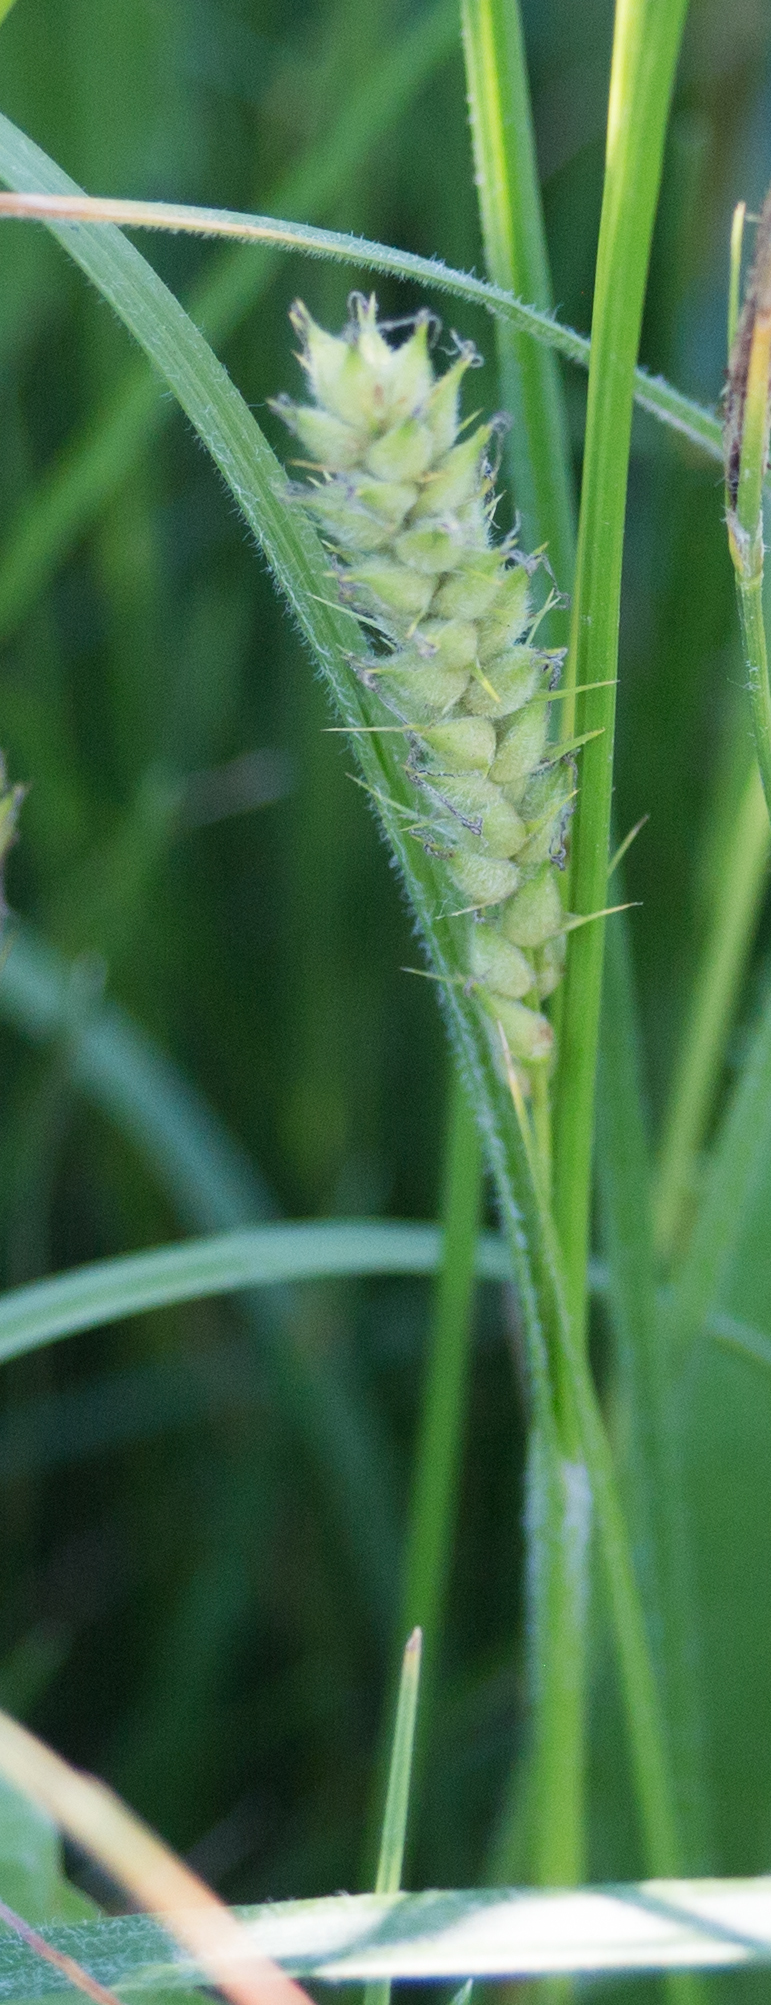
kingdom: Plantae
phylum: Tracheophyta
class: Liliopsida
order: Poales
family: Cyperaceae
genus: Carex
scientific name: Carex hirta
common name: Hairy sedge
